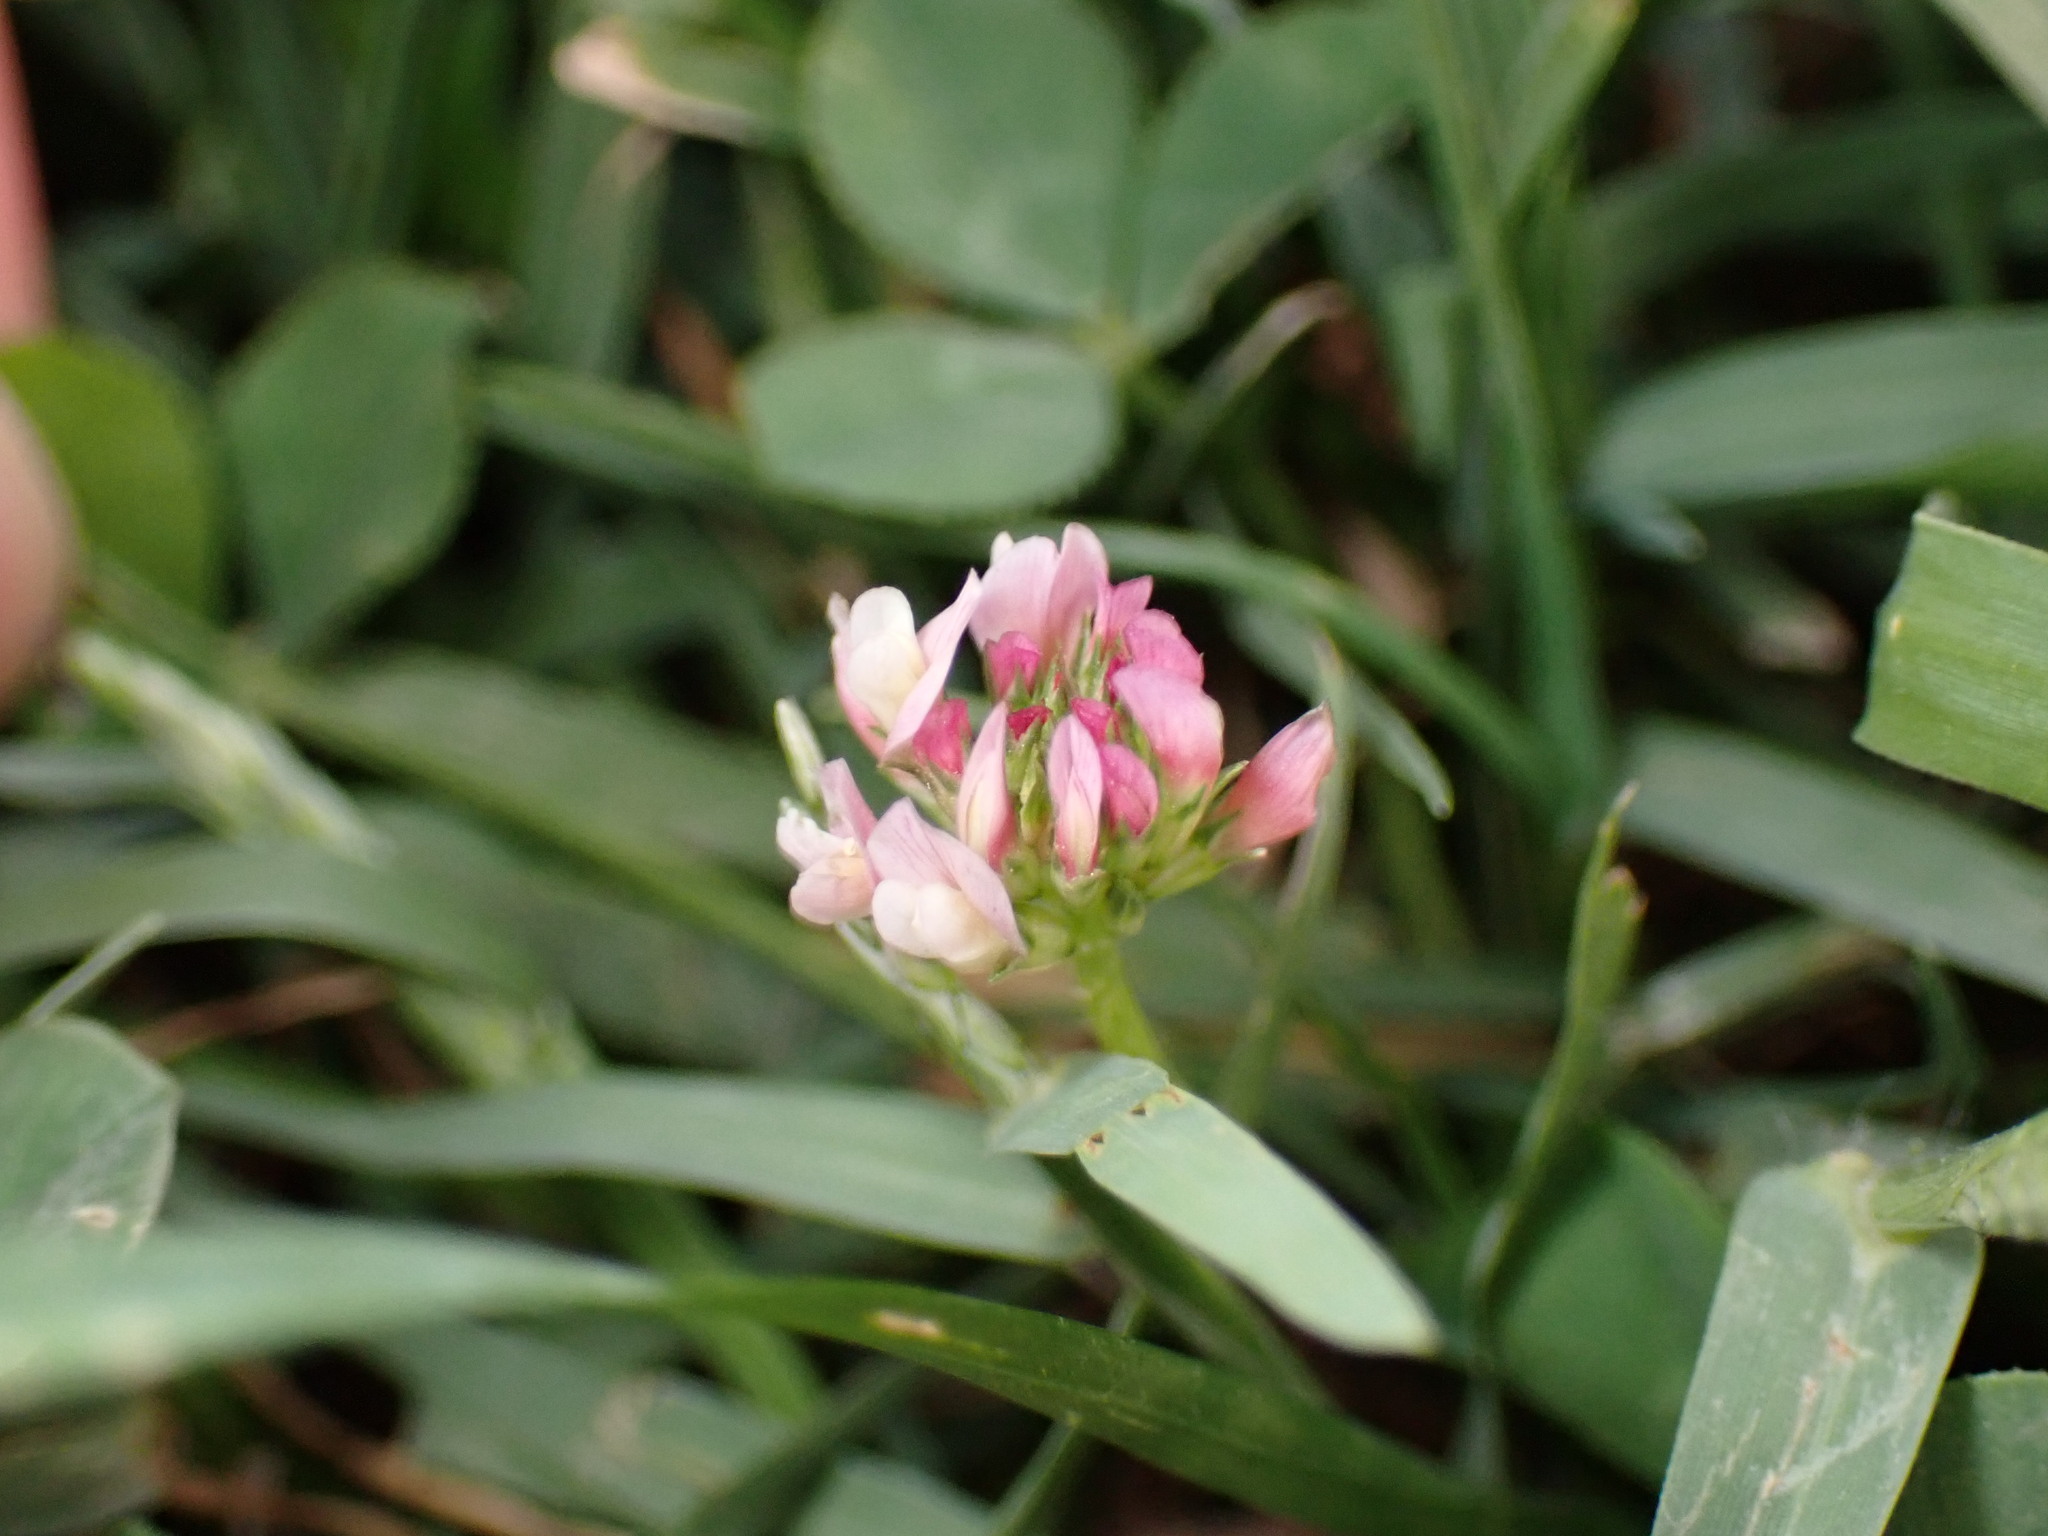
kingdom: Plantae
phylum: Tracheophyta
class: Magnoliopsida
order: Fabales
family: Fabaceae
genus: Trifolium
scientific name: Trifolium nigrescens
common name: Small white clover
